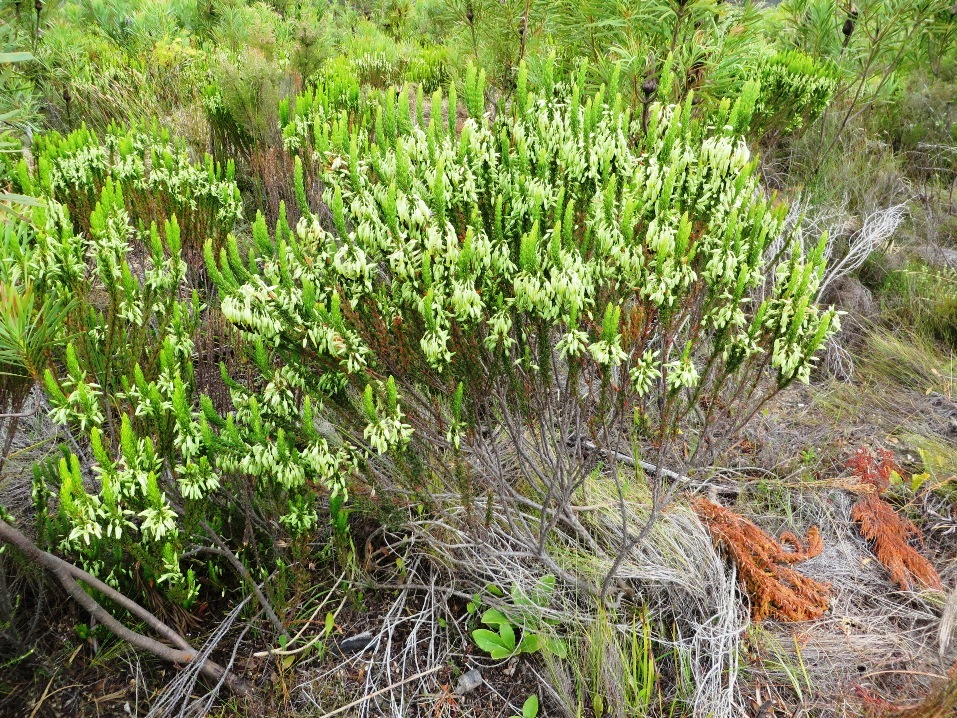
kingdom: Plantae
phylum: Tracheophyta
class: Magnoliopsida
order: Ericales
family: Ericaceae
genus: Erica
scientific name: Erica plukenetii
